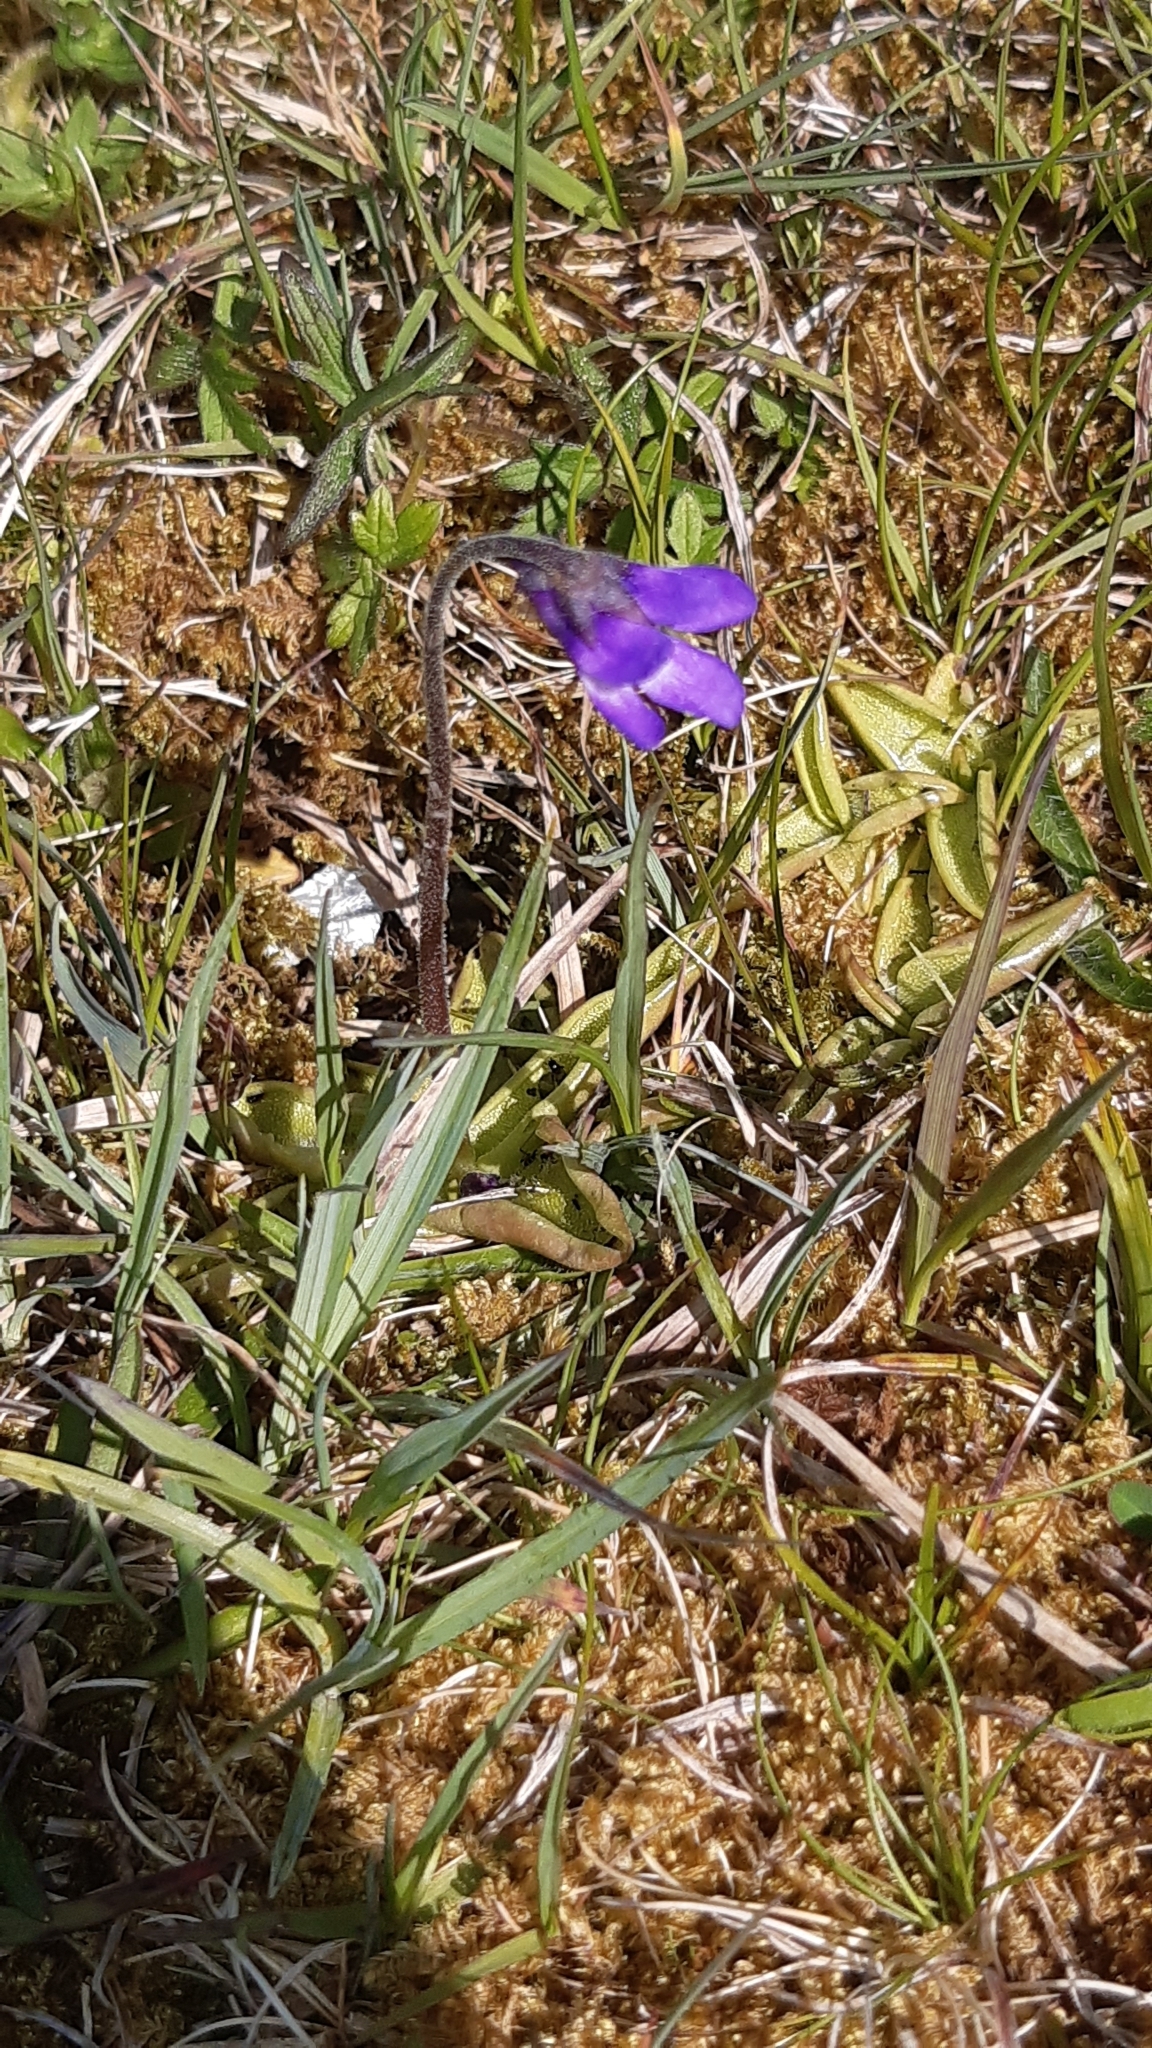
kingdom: Plantae
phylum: Tracheophyta
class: Magnoliopsida
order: Lamiales
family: Lentibulariaceae
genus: Pinguicula
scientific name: Pinguicula vulgaris
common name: Common butterwort
